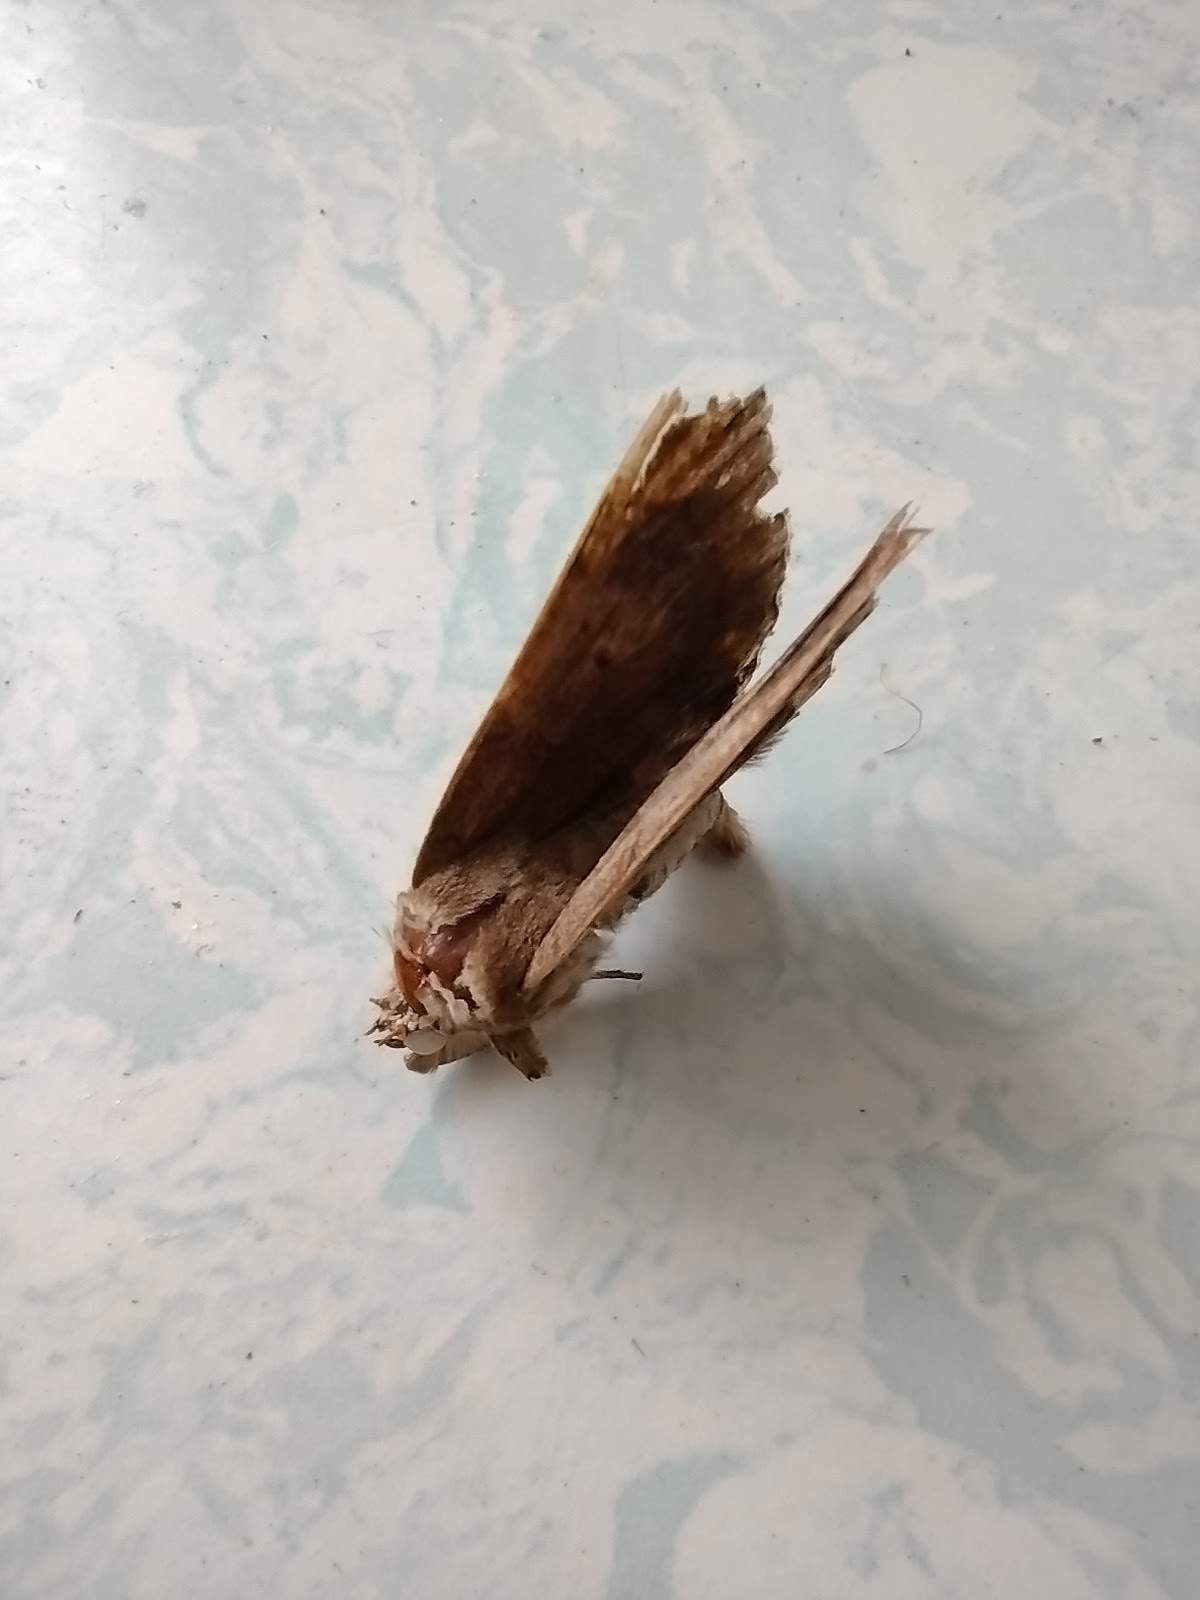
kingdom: Animalia
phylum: Arthropoda
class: Insecta
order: Lepidoptera
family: Erebidae
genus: Achaea
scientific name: Achaea janata
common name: Croton caterpillar
